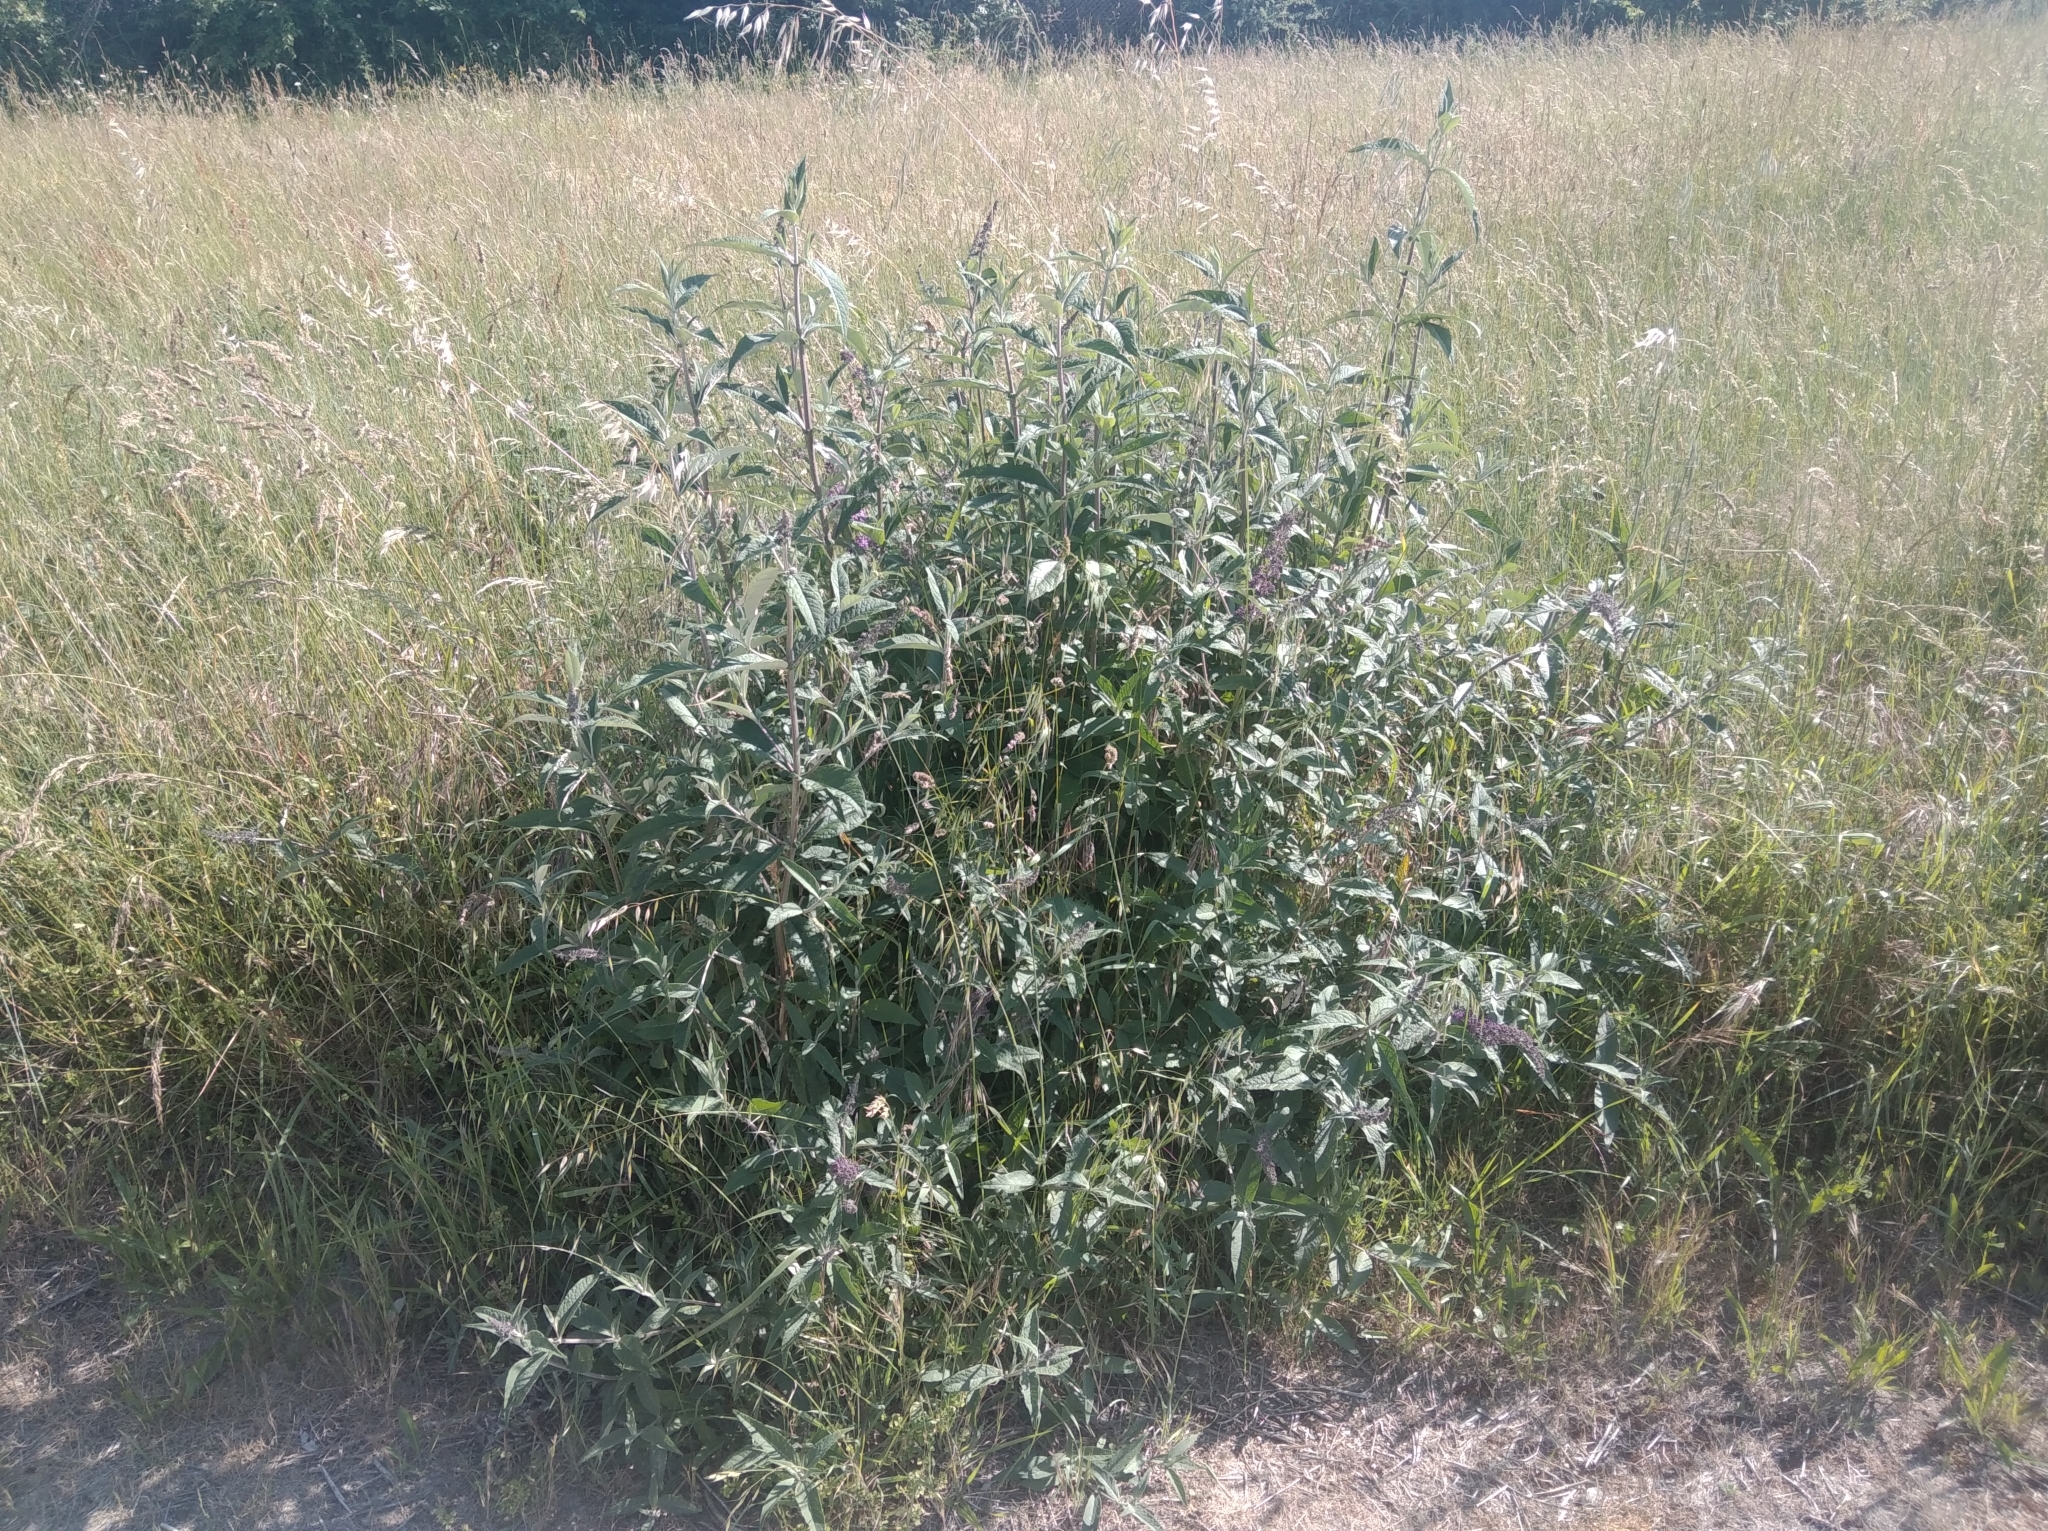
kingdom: Plantae
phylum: Tracheophyta
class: Magnoliopsida
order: Lamiales
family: Scrophulariaceae
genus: Buddleja
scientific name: Buddleja davidii
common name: Butterfly-bush
